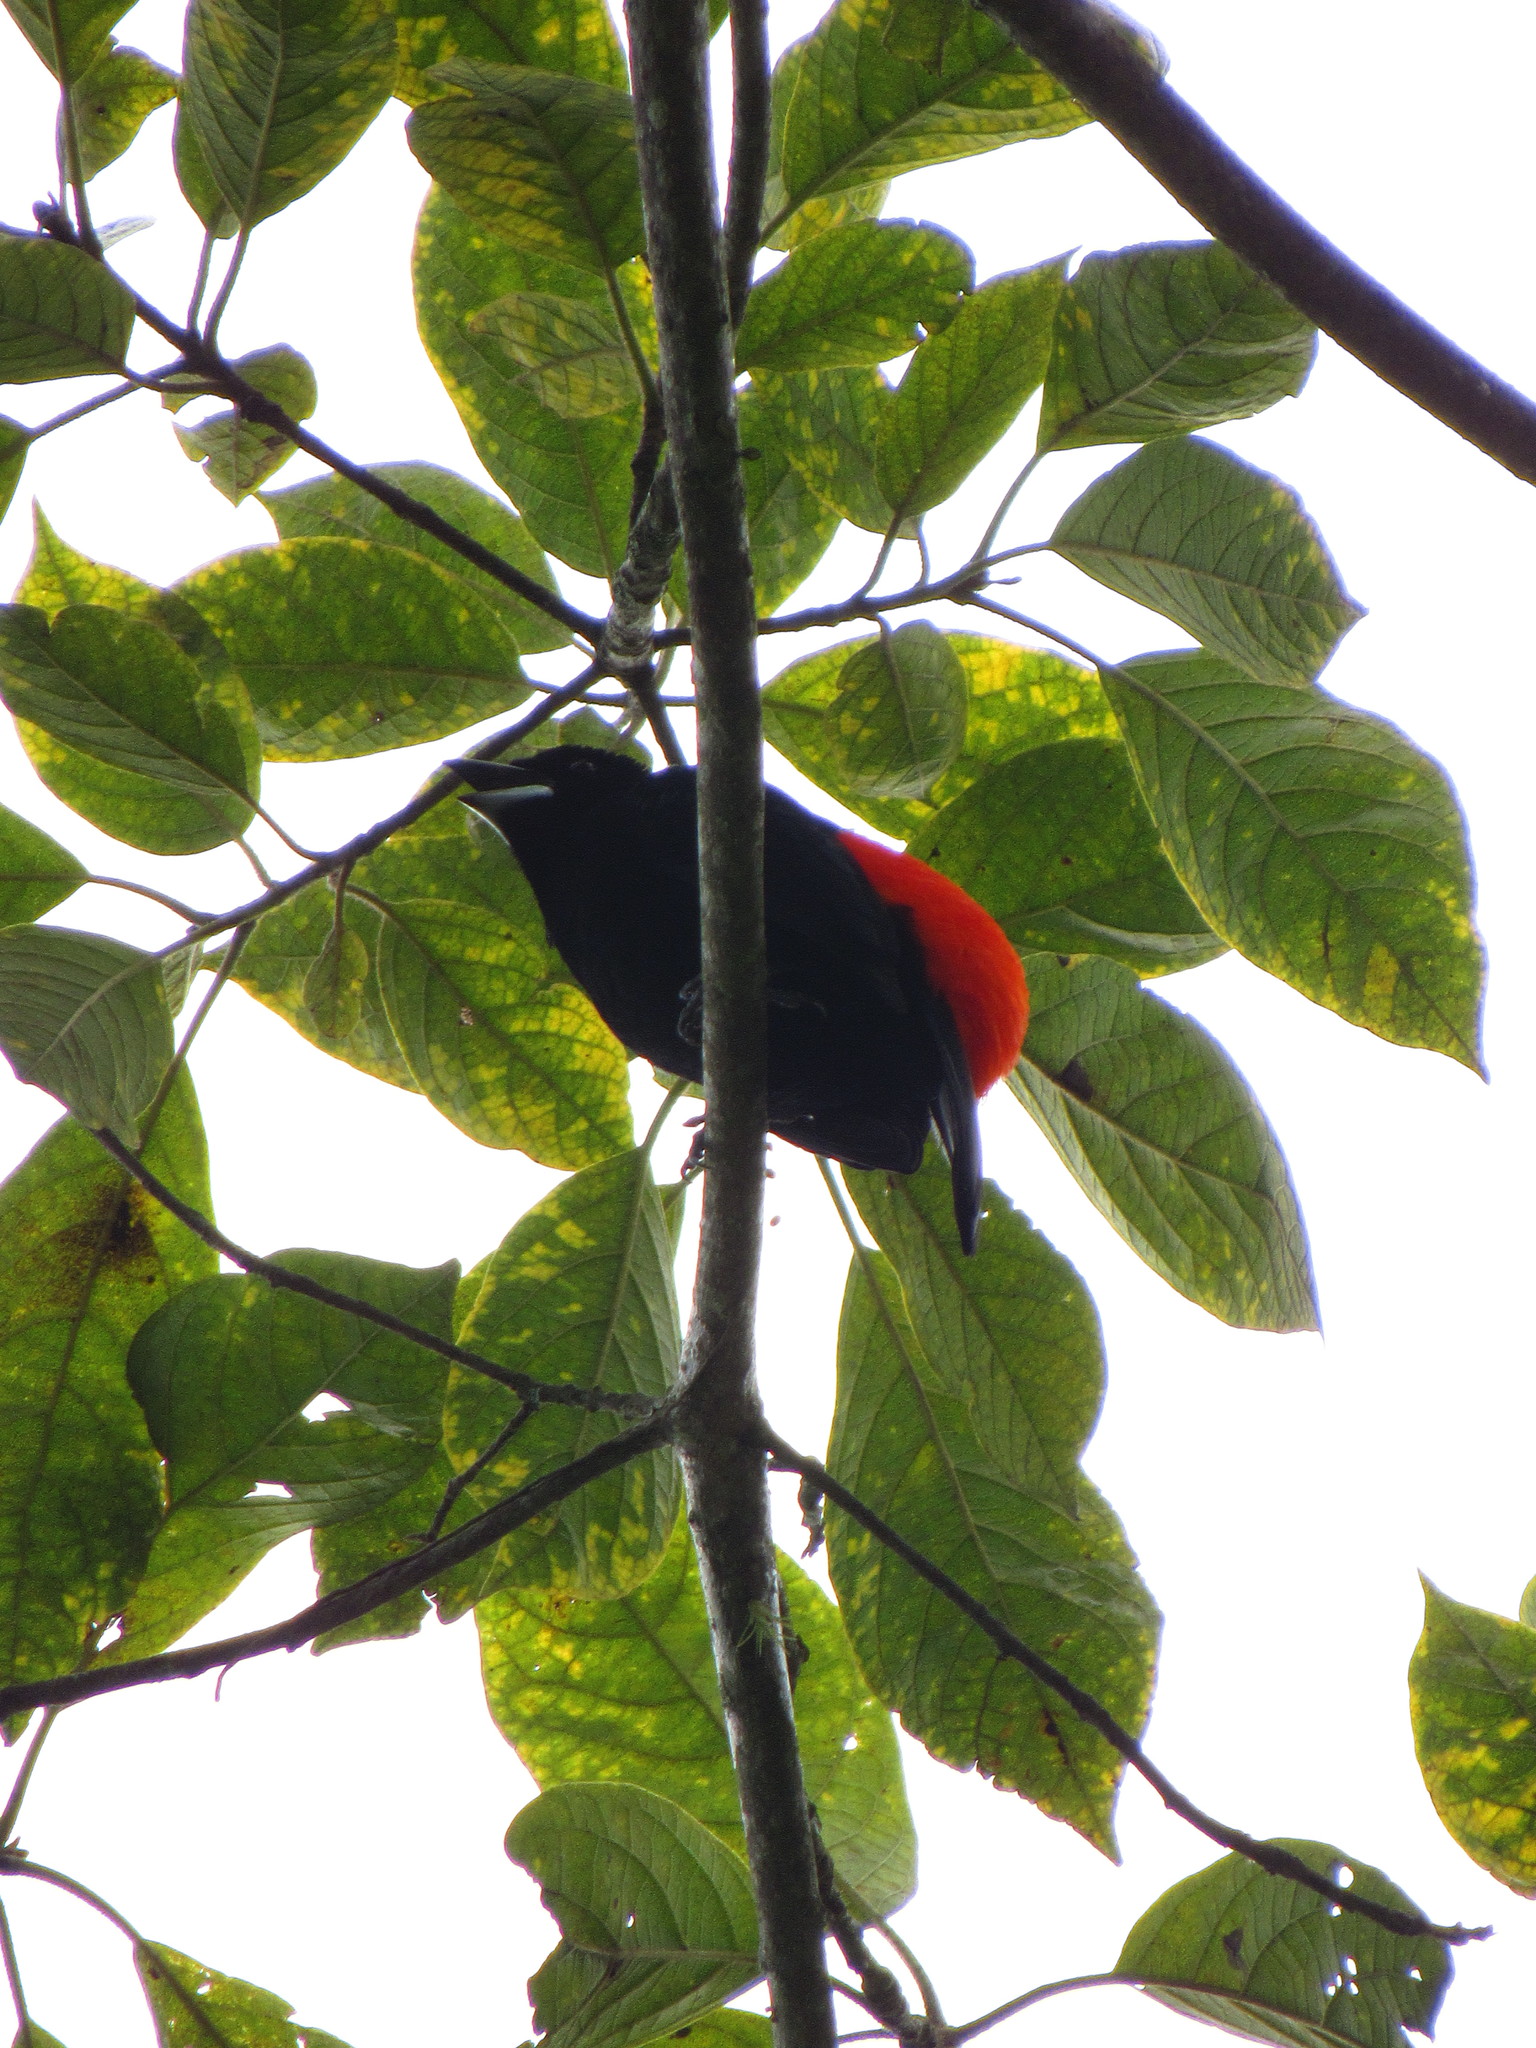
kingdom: Animalia
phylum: Chordata
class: Aves
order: Passeriformes
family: Thraupidae
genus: Ramphocelus
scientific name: Ramphocelus flammigerus
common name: Flame-rumped tanager
